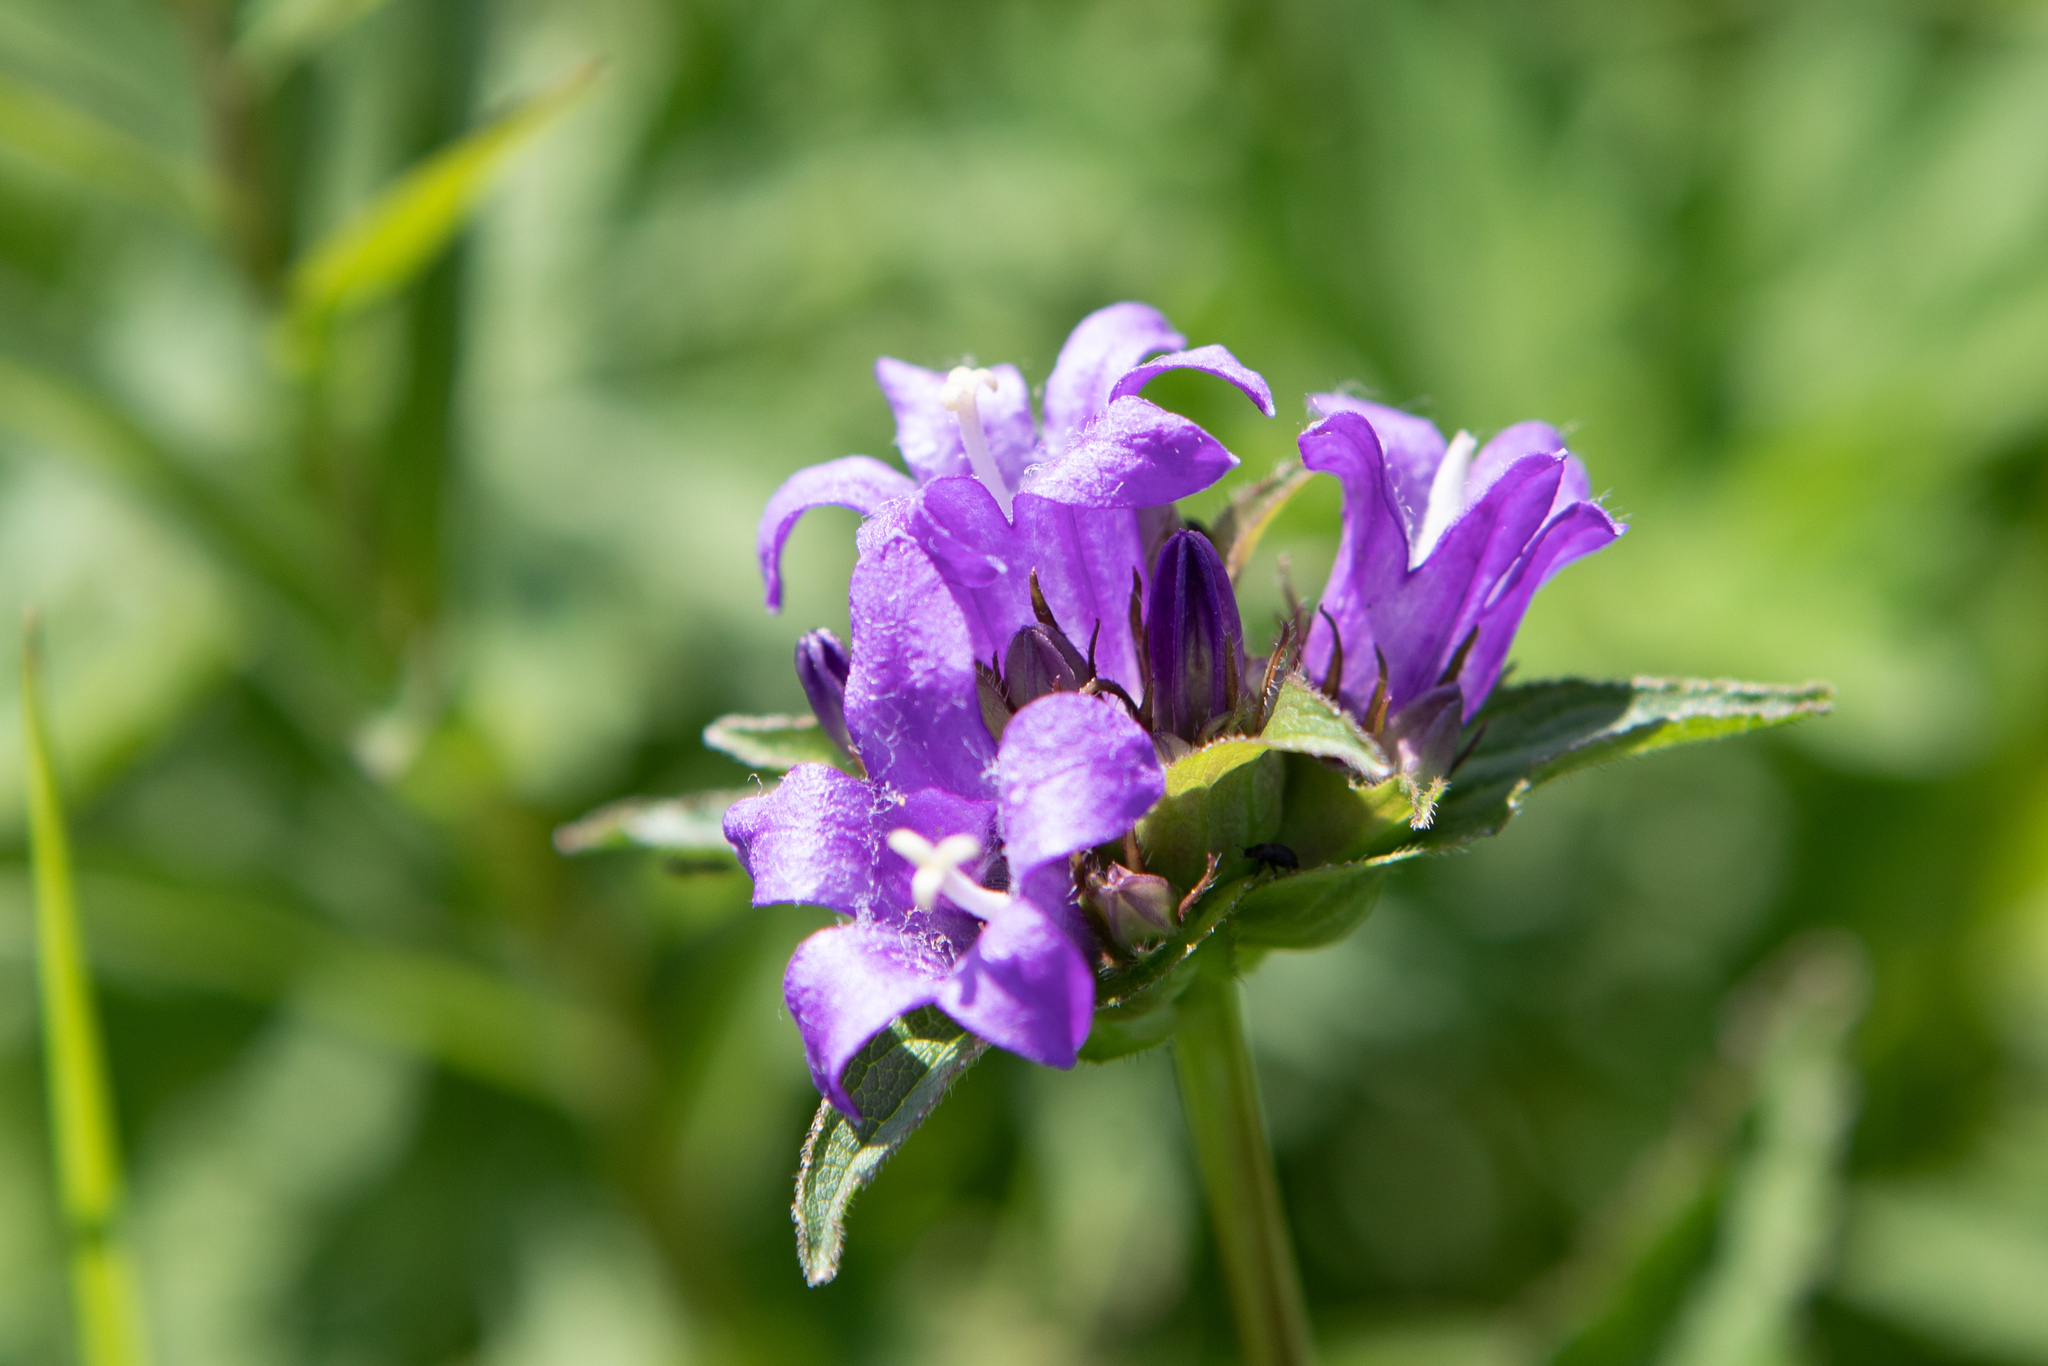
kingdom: Plantae
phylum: Tracheophyta
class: Magnoliopsida
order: Asterales
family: Campanulaceae
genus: Campanula
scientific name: Campanula glomerata
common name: Clustered bellflower
